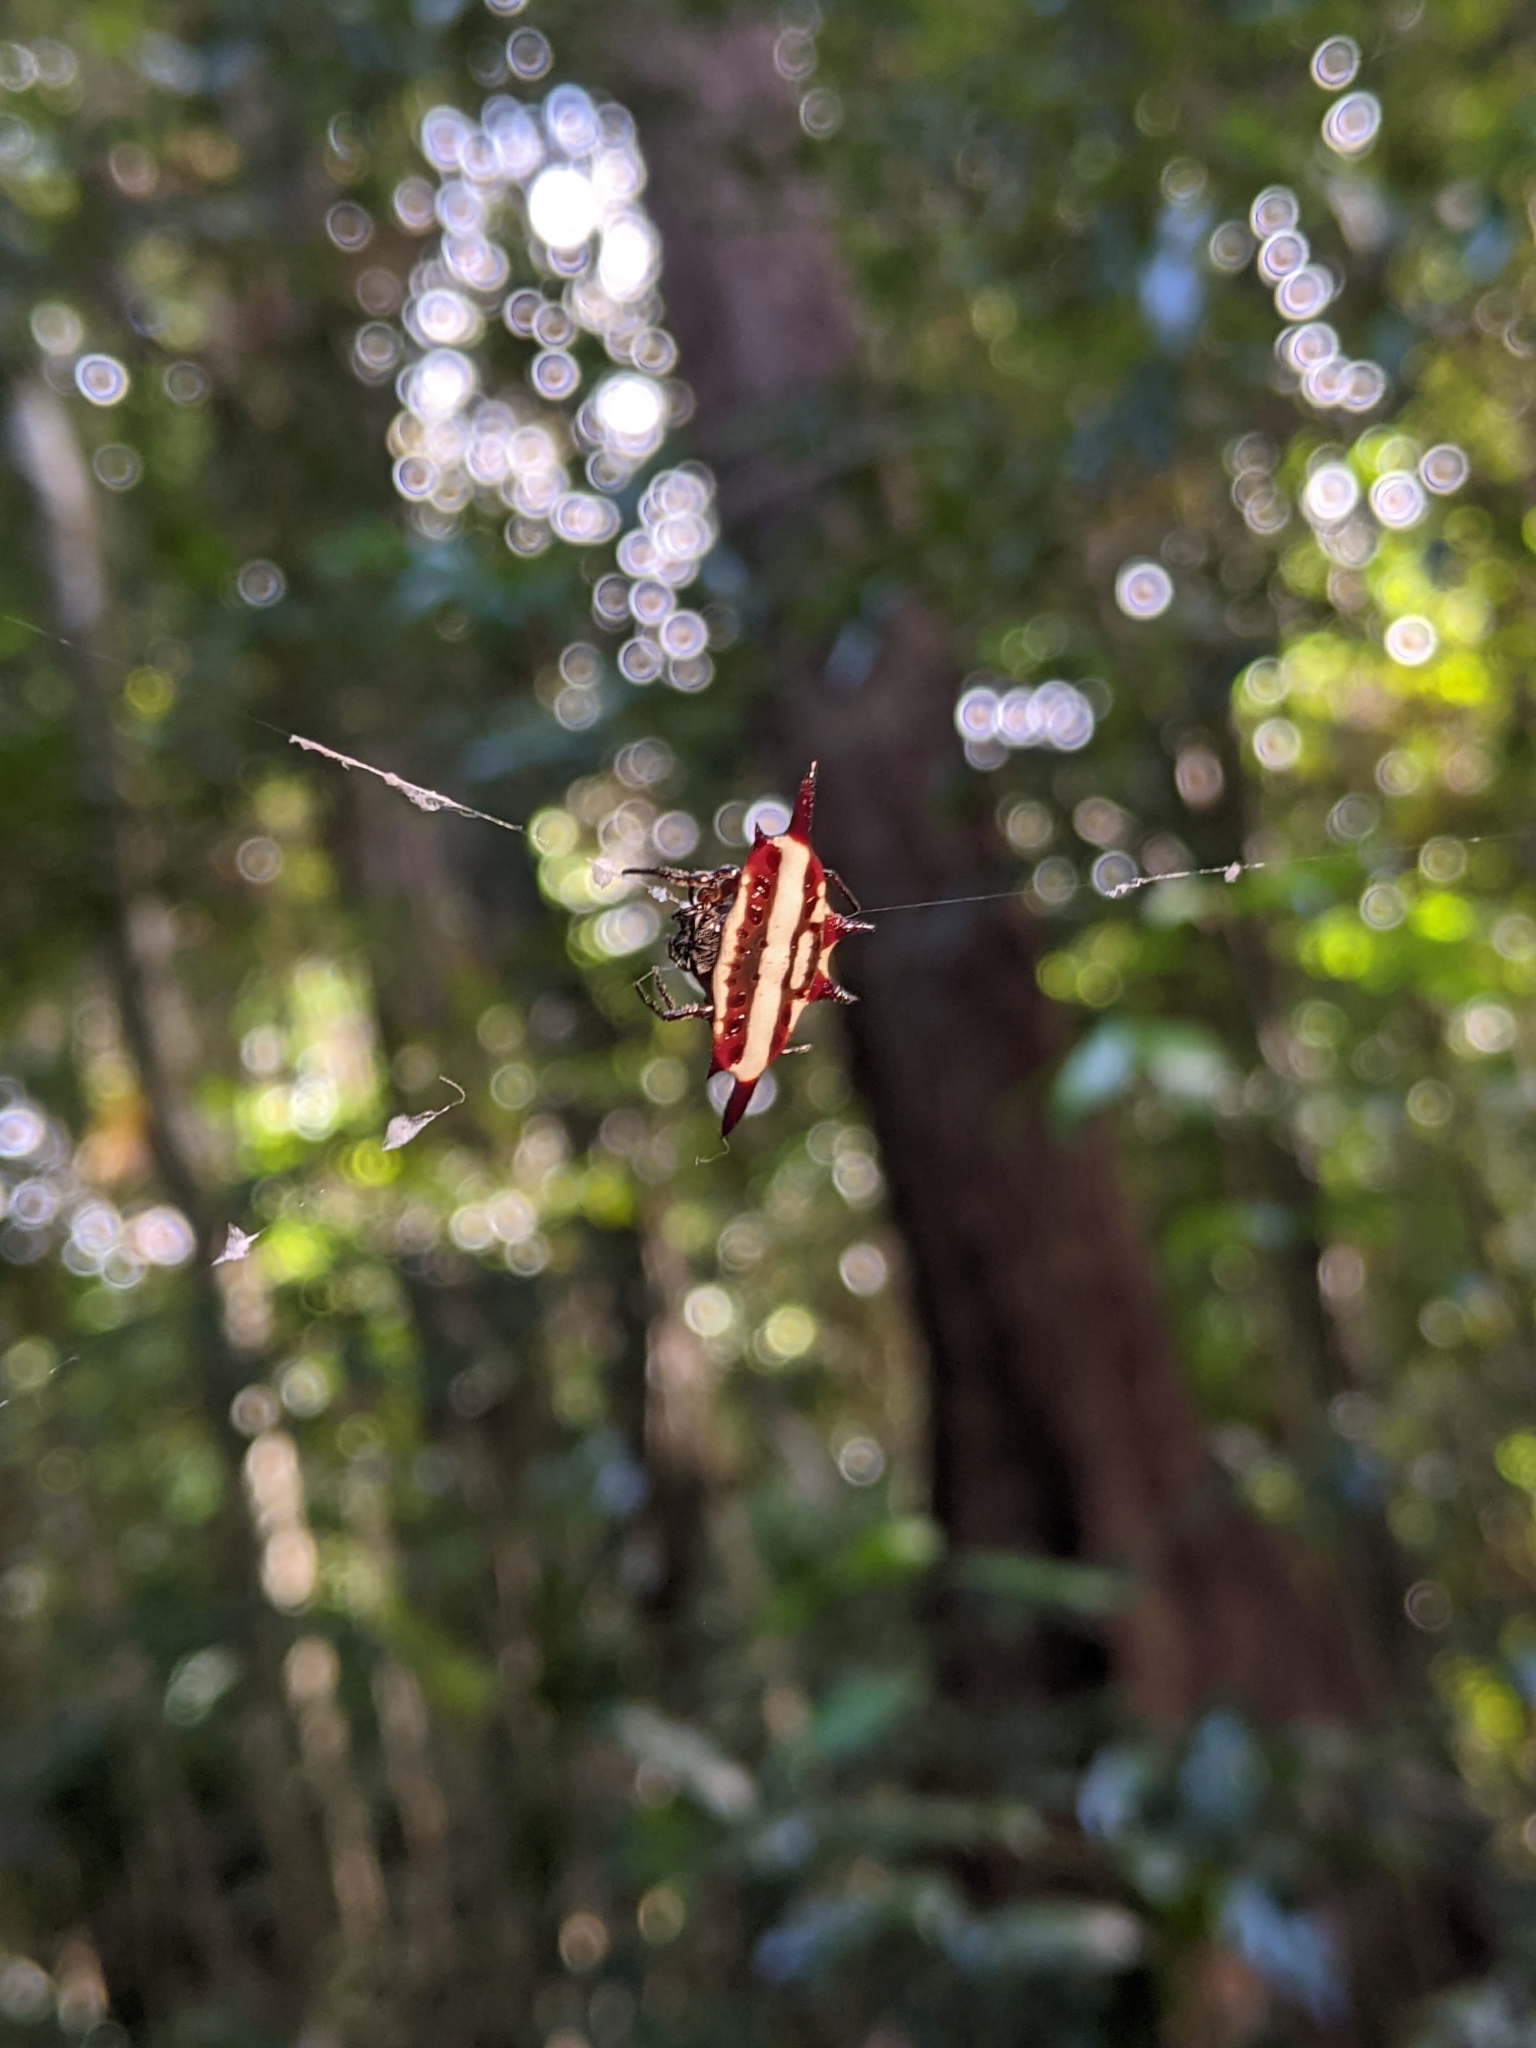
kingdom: Animalia
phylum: Arthropoda
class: Arachnida
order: Araneae
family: Araneidae
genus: Gasteracantha
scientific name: Gasteracantha fornicata
